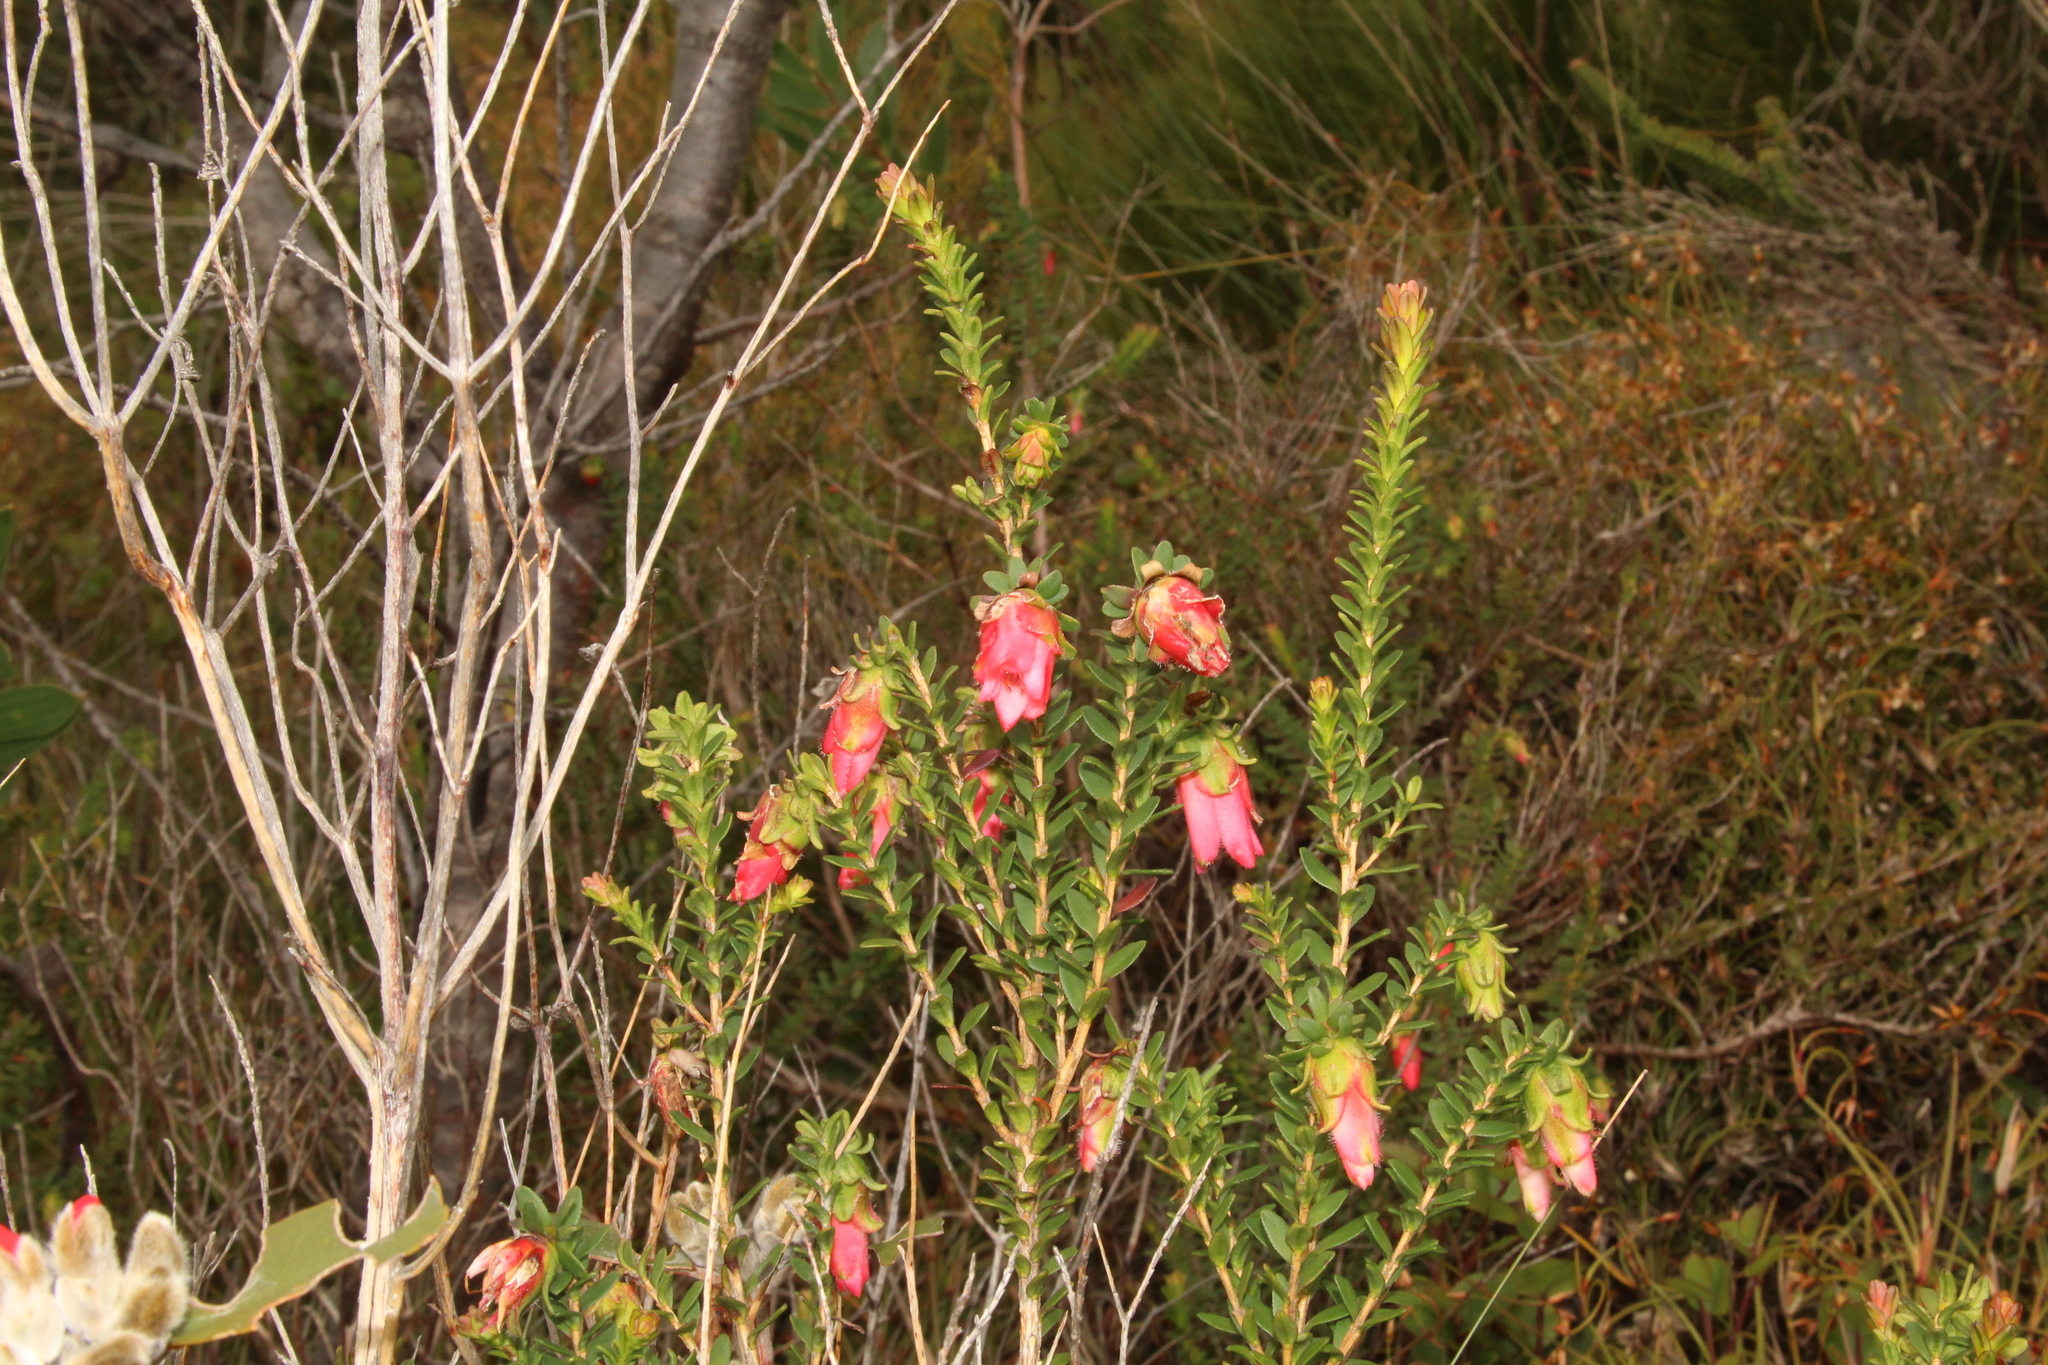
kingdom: Plantae
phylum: Tracheophyta
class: Magnoliopsida
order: Myrtales
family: Myrtaceae
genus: Darwinia
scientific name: Darwinia squarrosa
